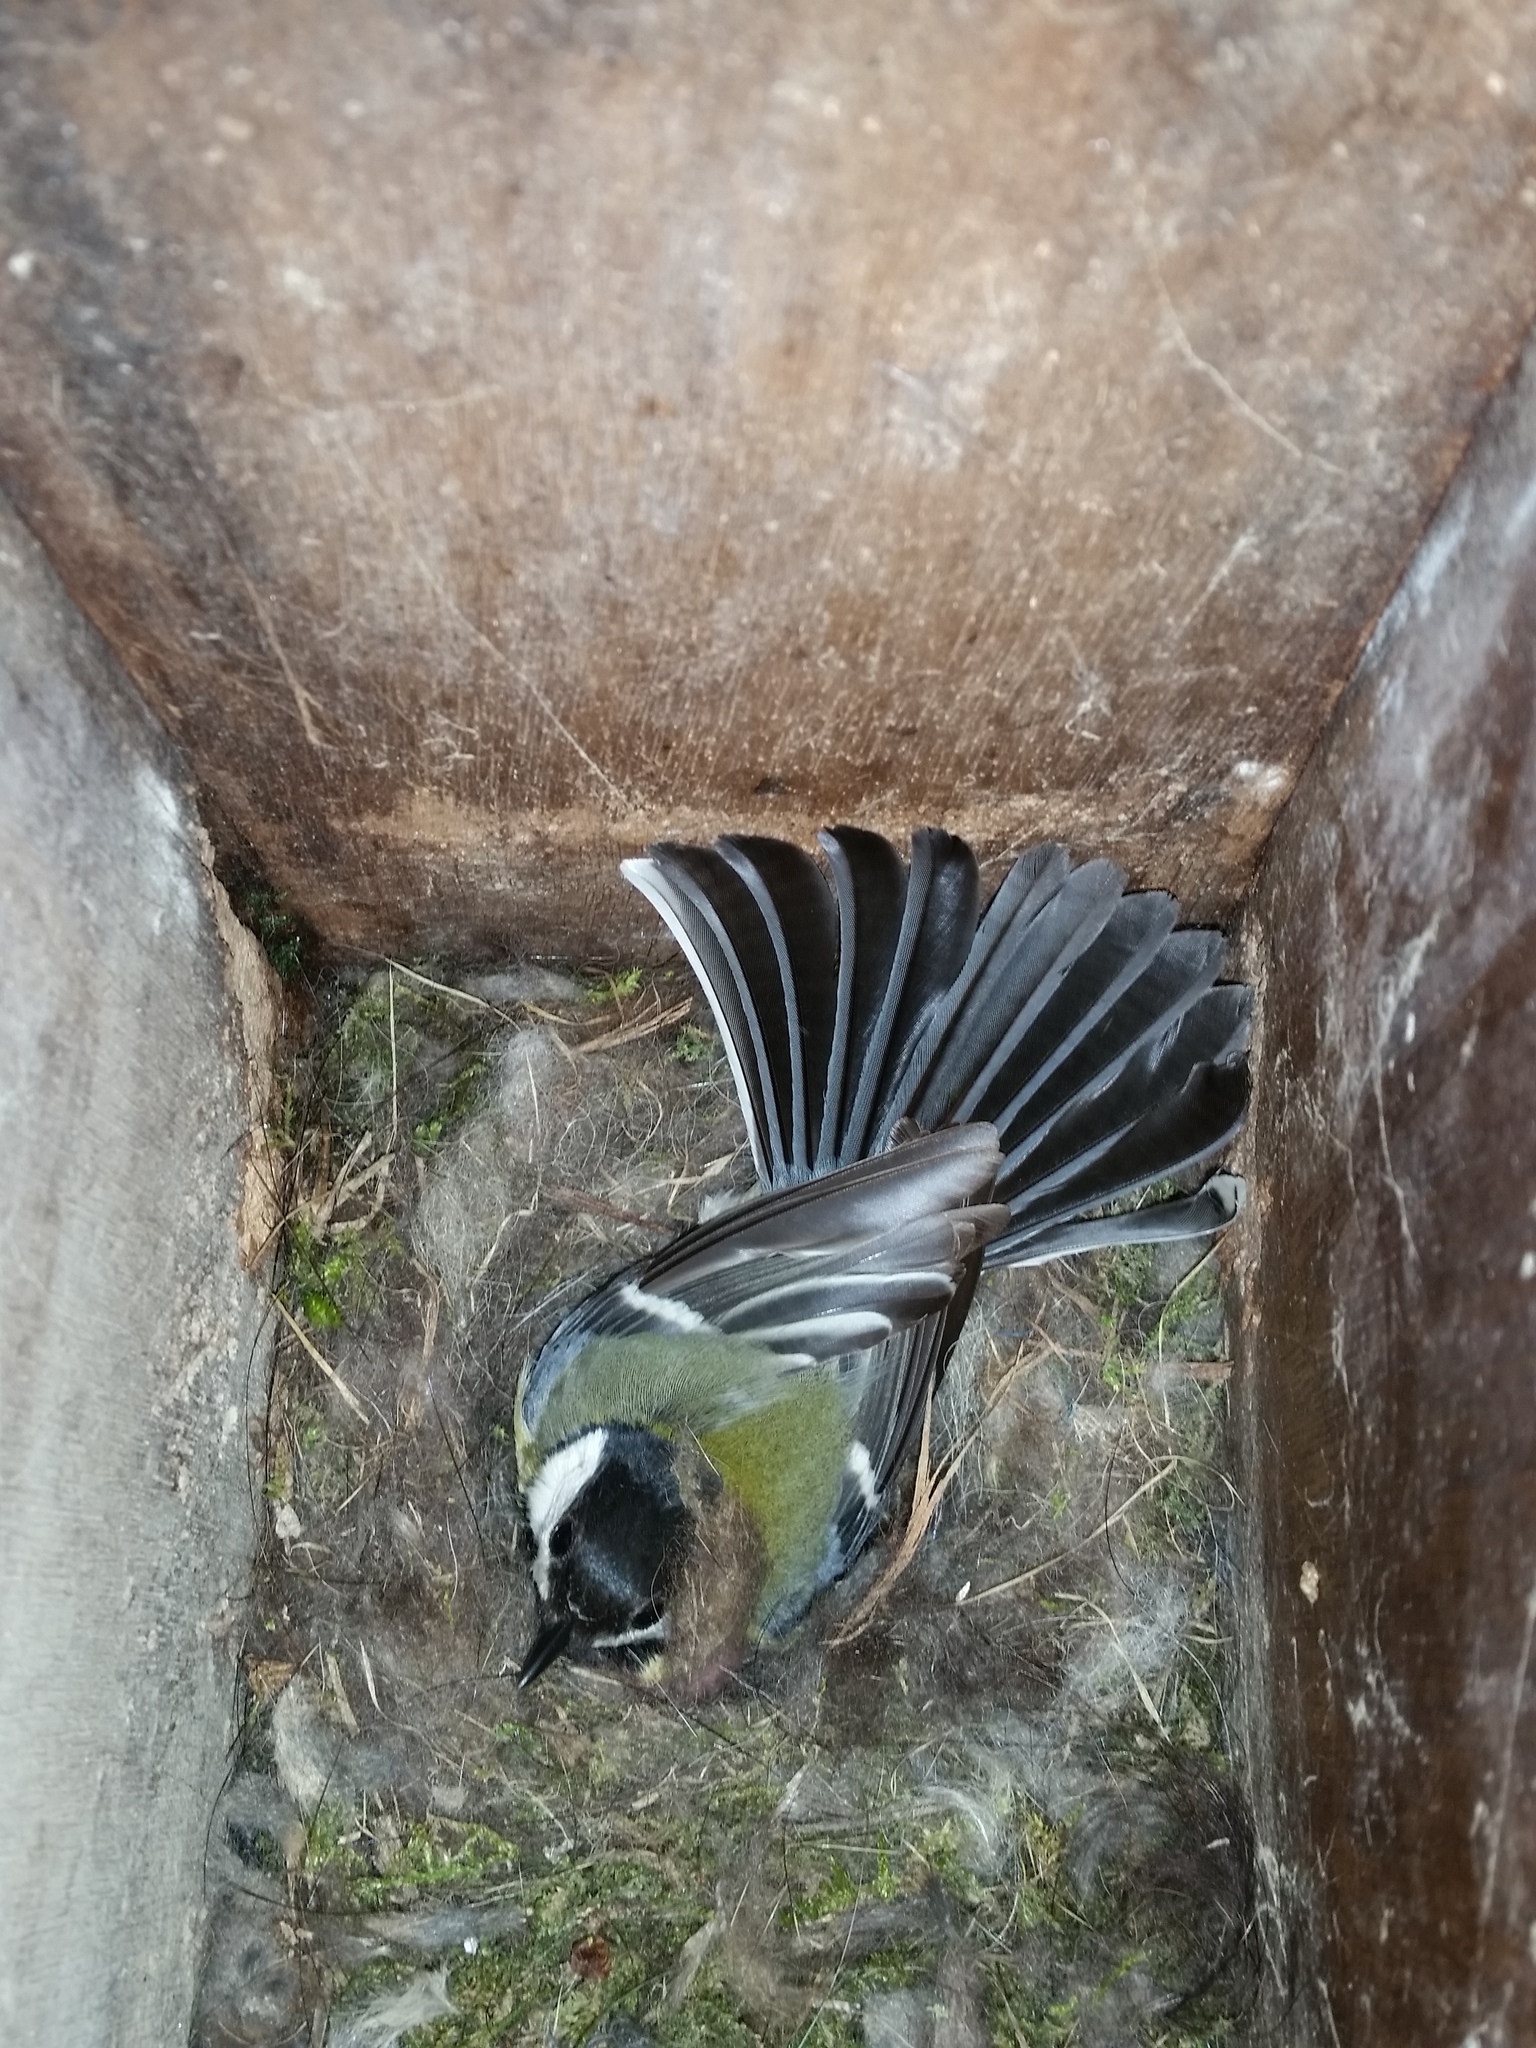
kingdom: Animalia
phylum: Chordata
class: Aves
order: Passeriformes
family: Paridae
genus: Parus
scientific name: Parus major
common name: Great tit
